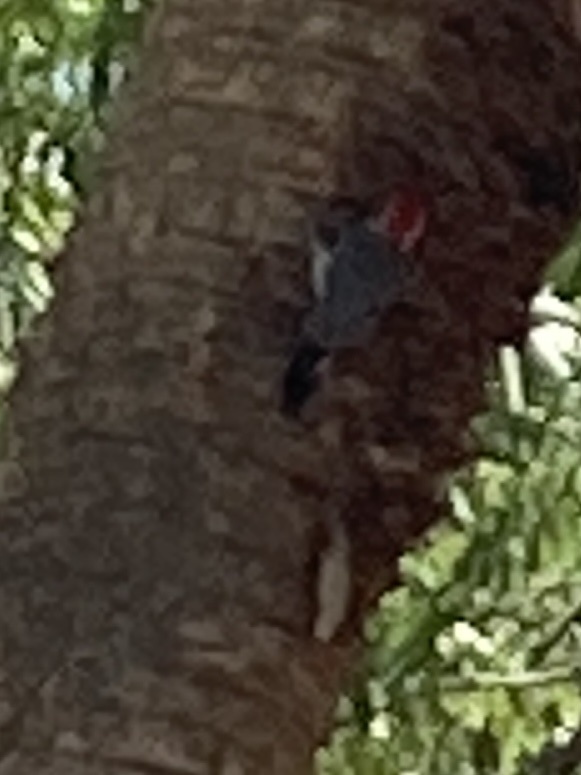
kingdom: Animalia
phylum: Chordata
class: Aves
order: Piciformes
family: Picidae
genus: Melanerpes
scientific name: Melanerpes carolinus
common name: Red-bellied woodpecker
